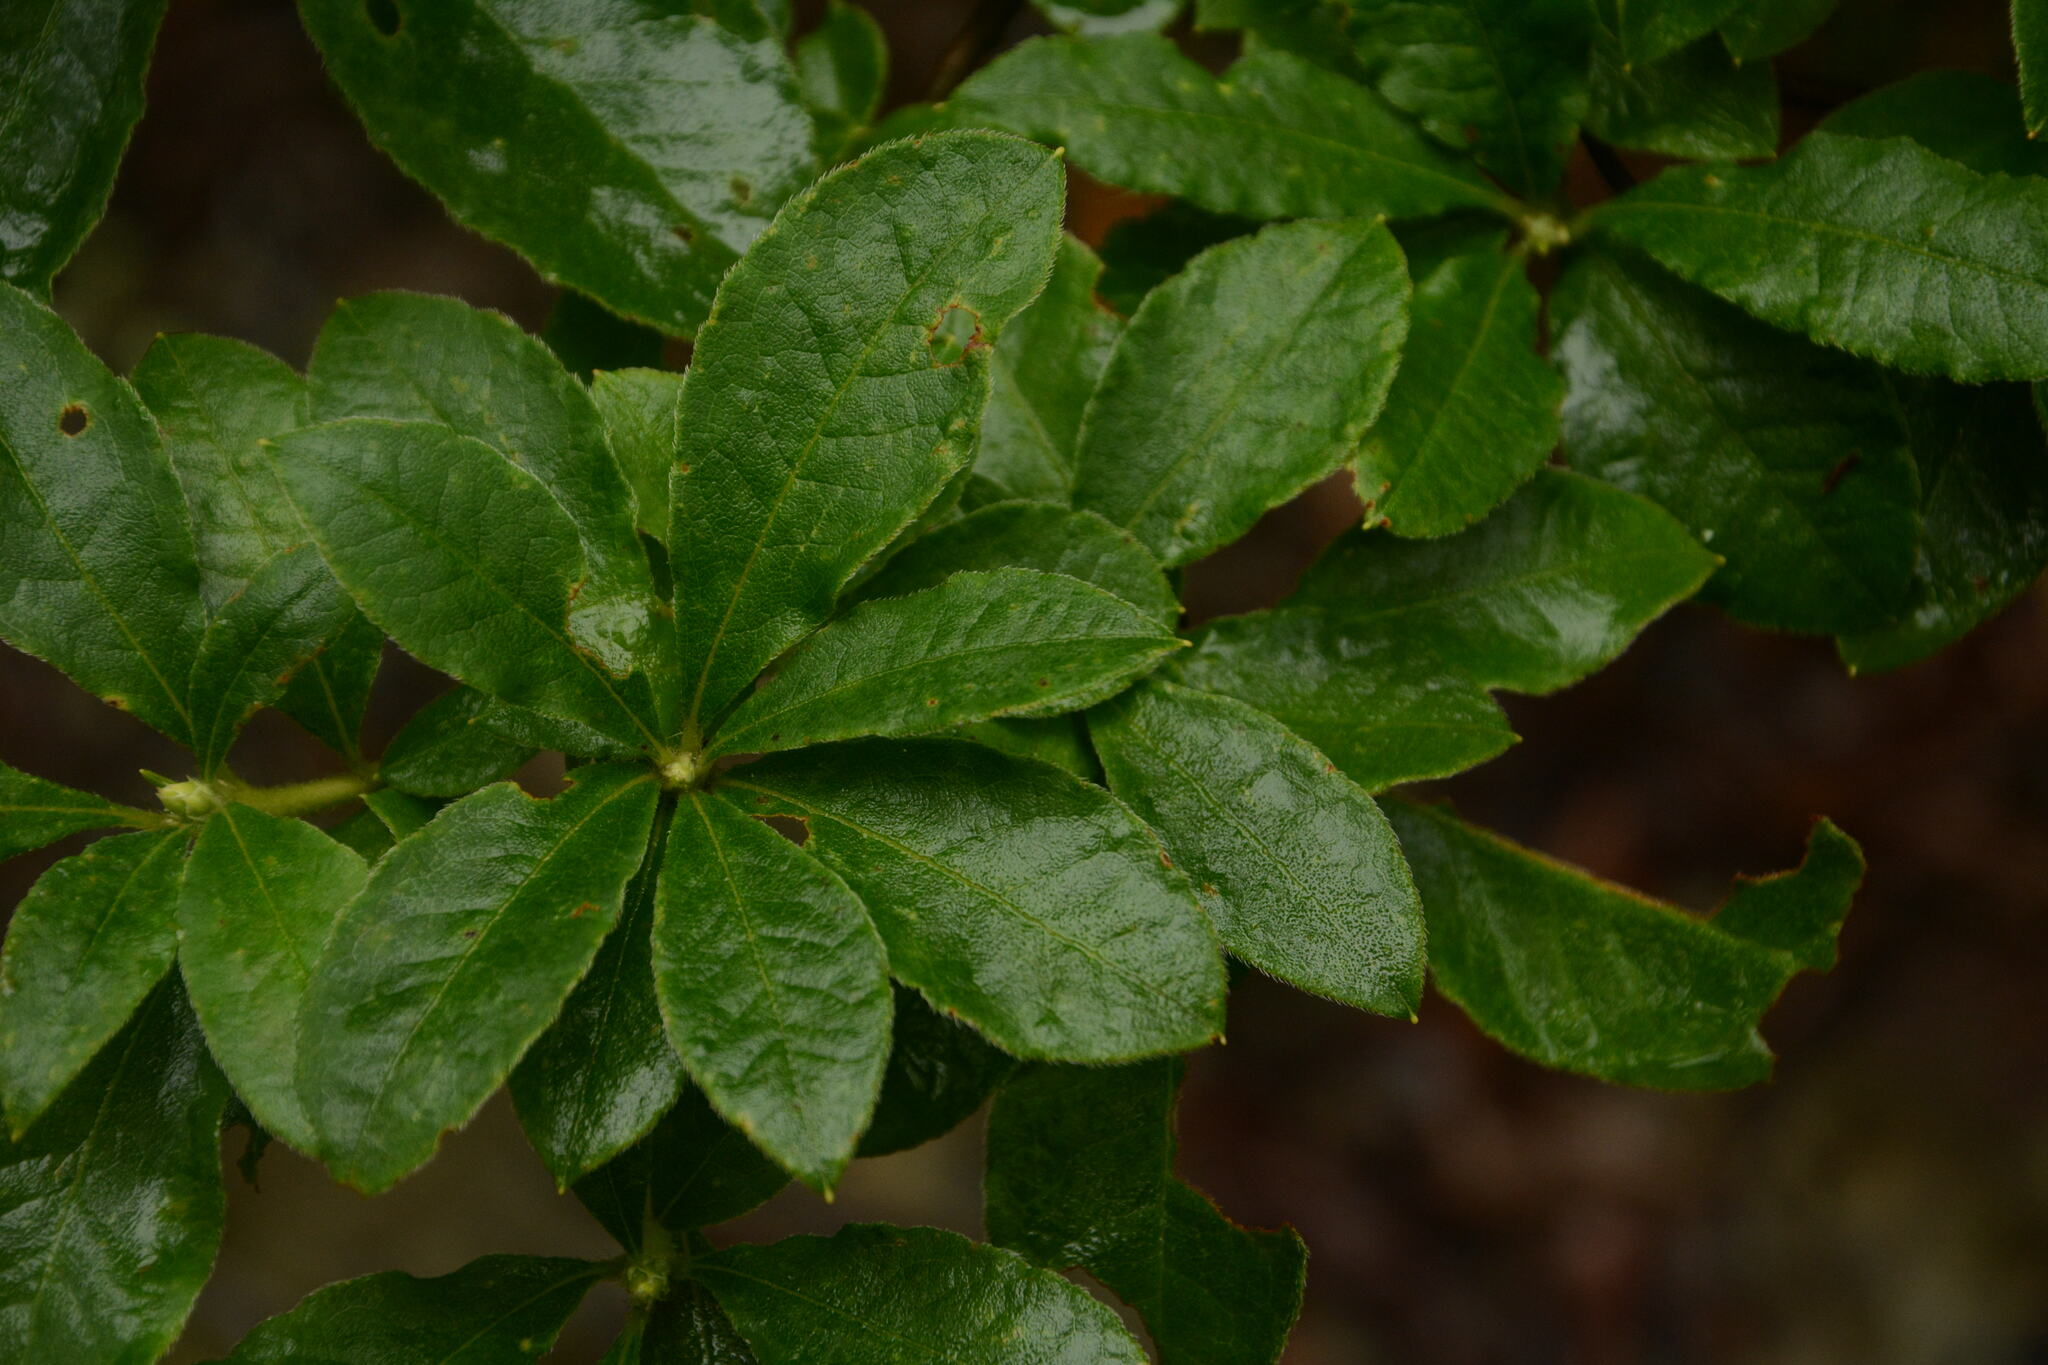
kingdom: Plantae
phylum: Tracheophyta
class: Magnoliopsida
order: Ericales
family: Ericaceae
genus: Rhododendron
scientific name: Rhododendron pilosum
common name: Hairy minniebush
